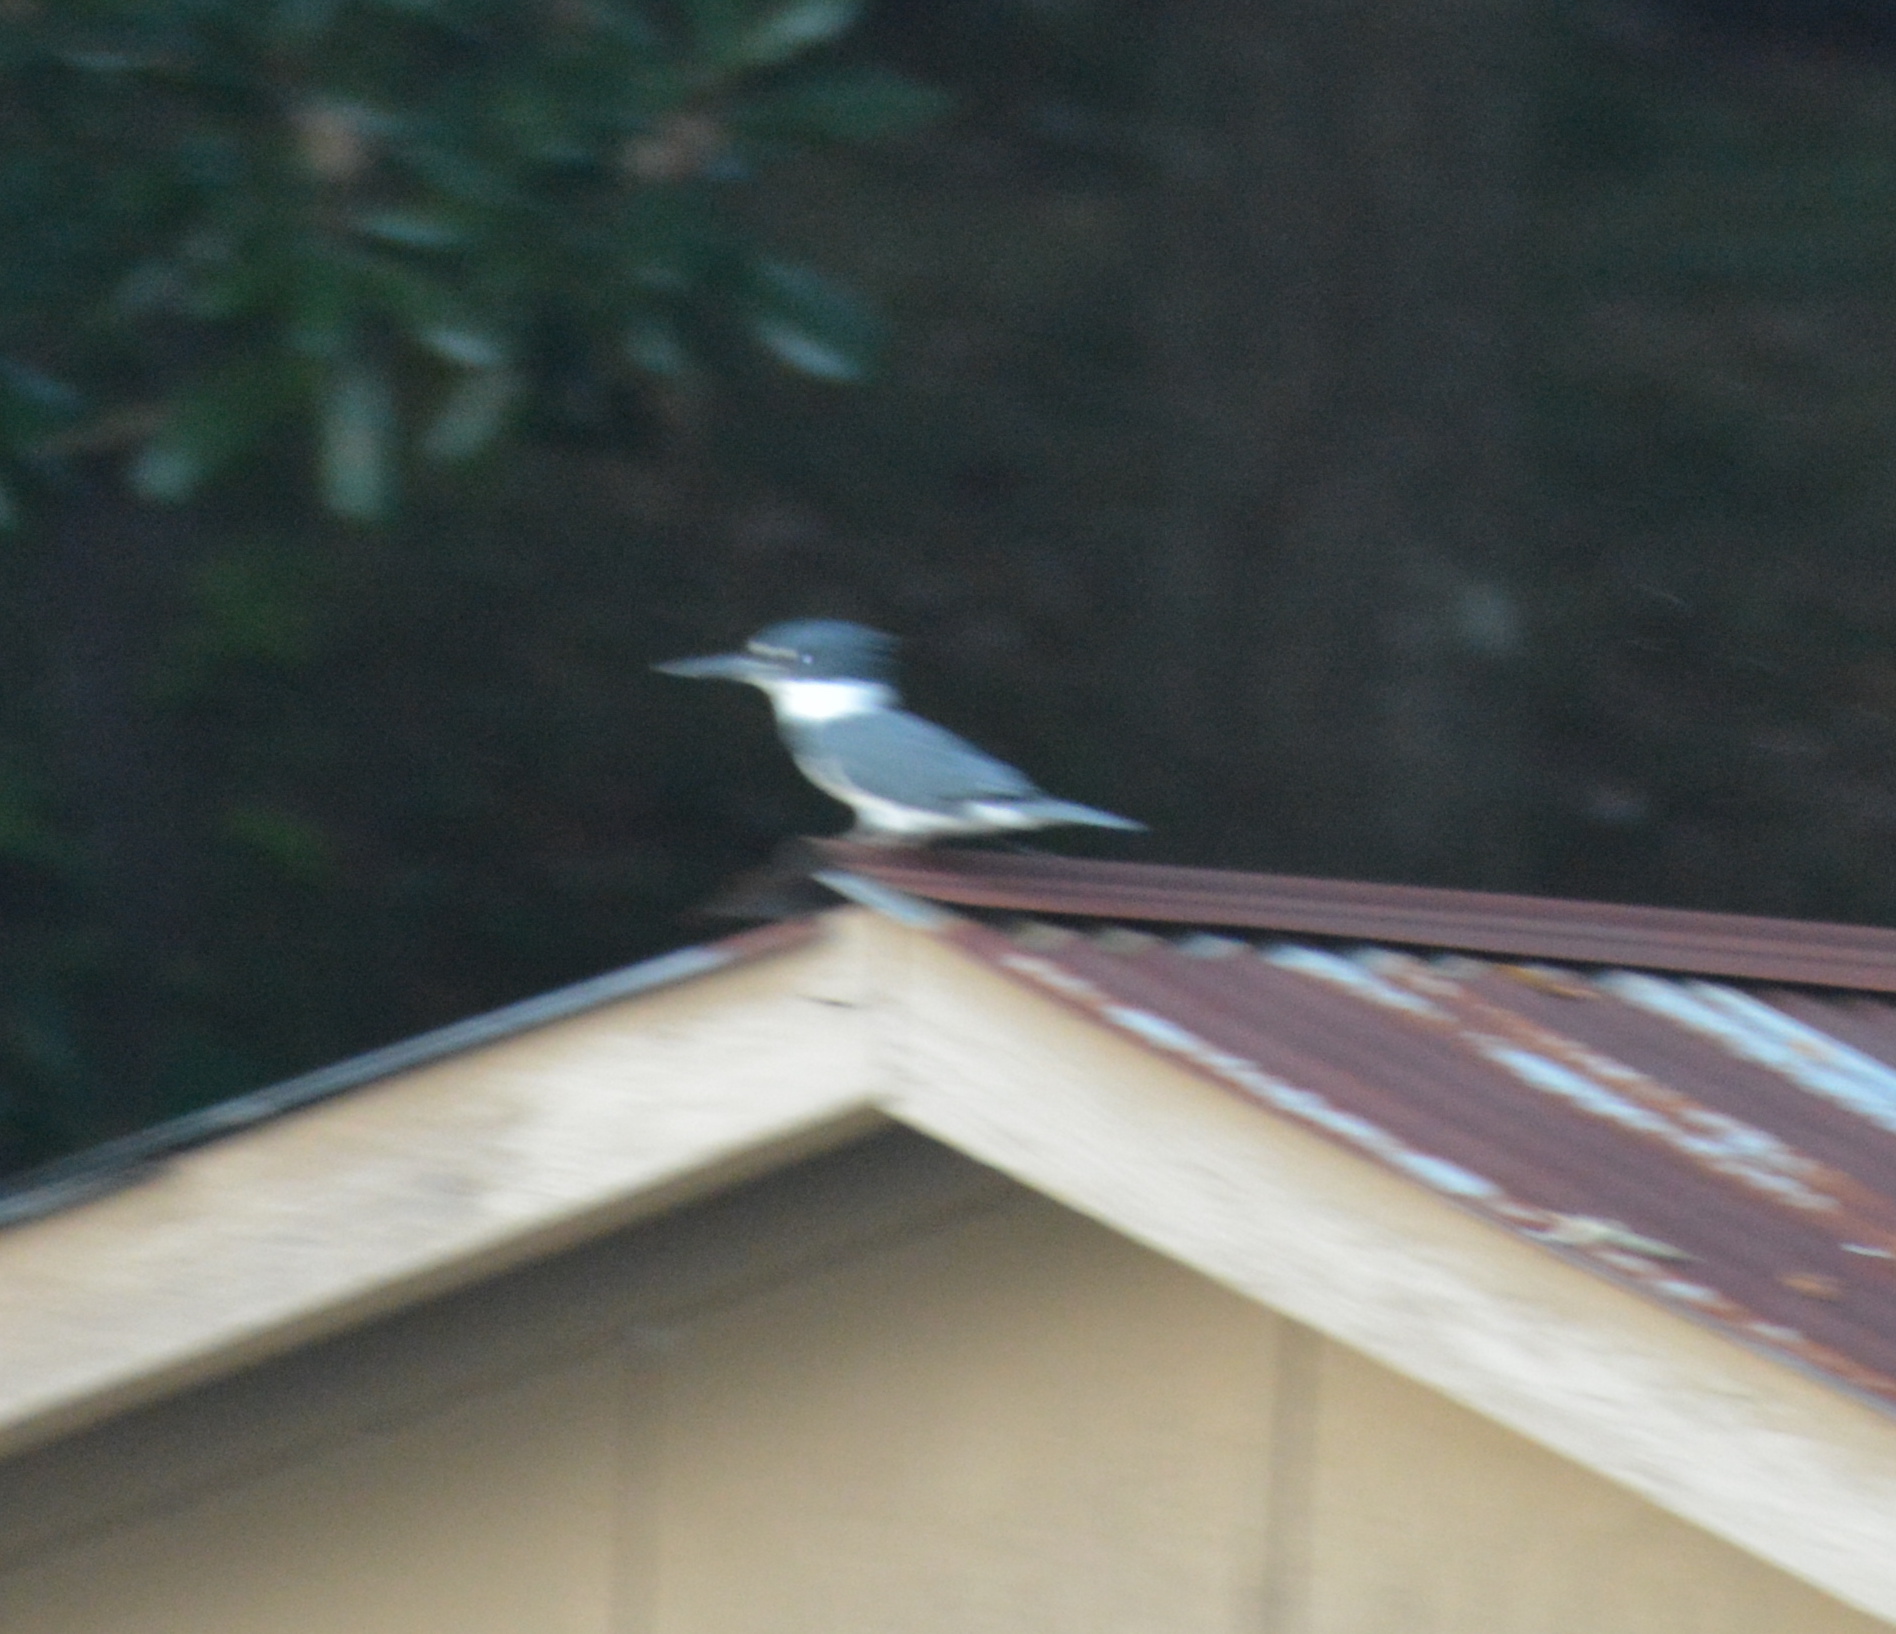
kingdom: Animalia
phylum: Chordata
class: Aves
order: Coraciiformes
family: Alcedinidae
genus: Megaceryle
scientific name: Megaceryle alcyon
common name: Belted kingfisher
